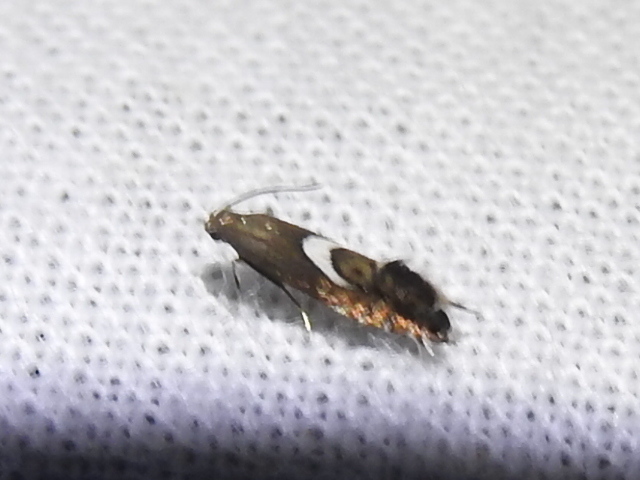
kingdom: Animalia
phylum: Arthropoda
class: Insecta
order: Lepidoptera
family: Glyphipterigidae
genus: Glyphipterix
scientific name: Glyphipterix Diploschizia impigritella
